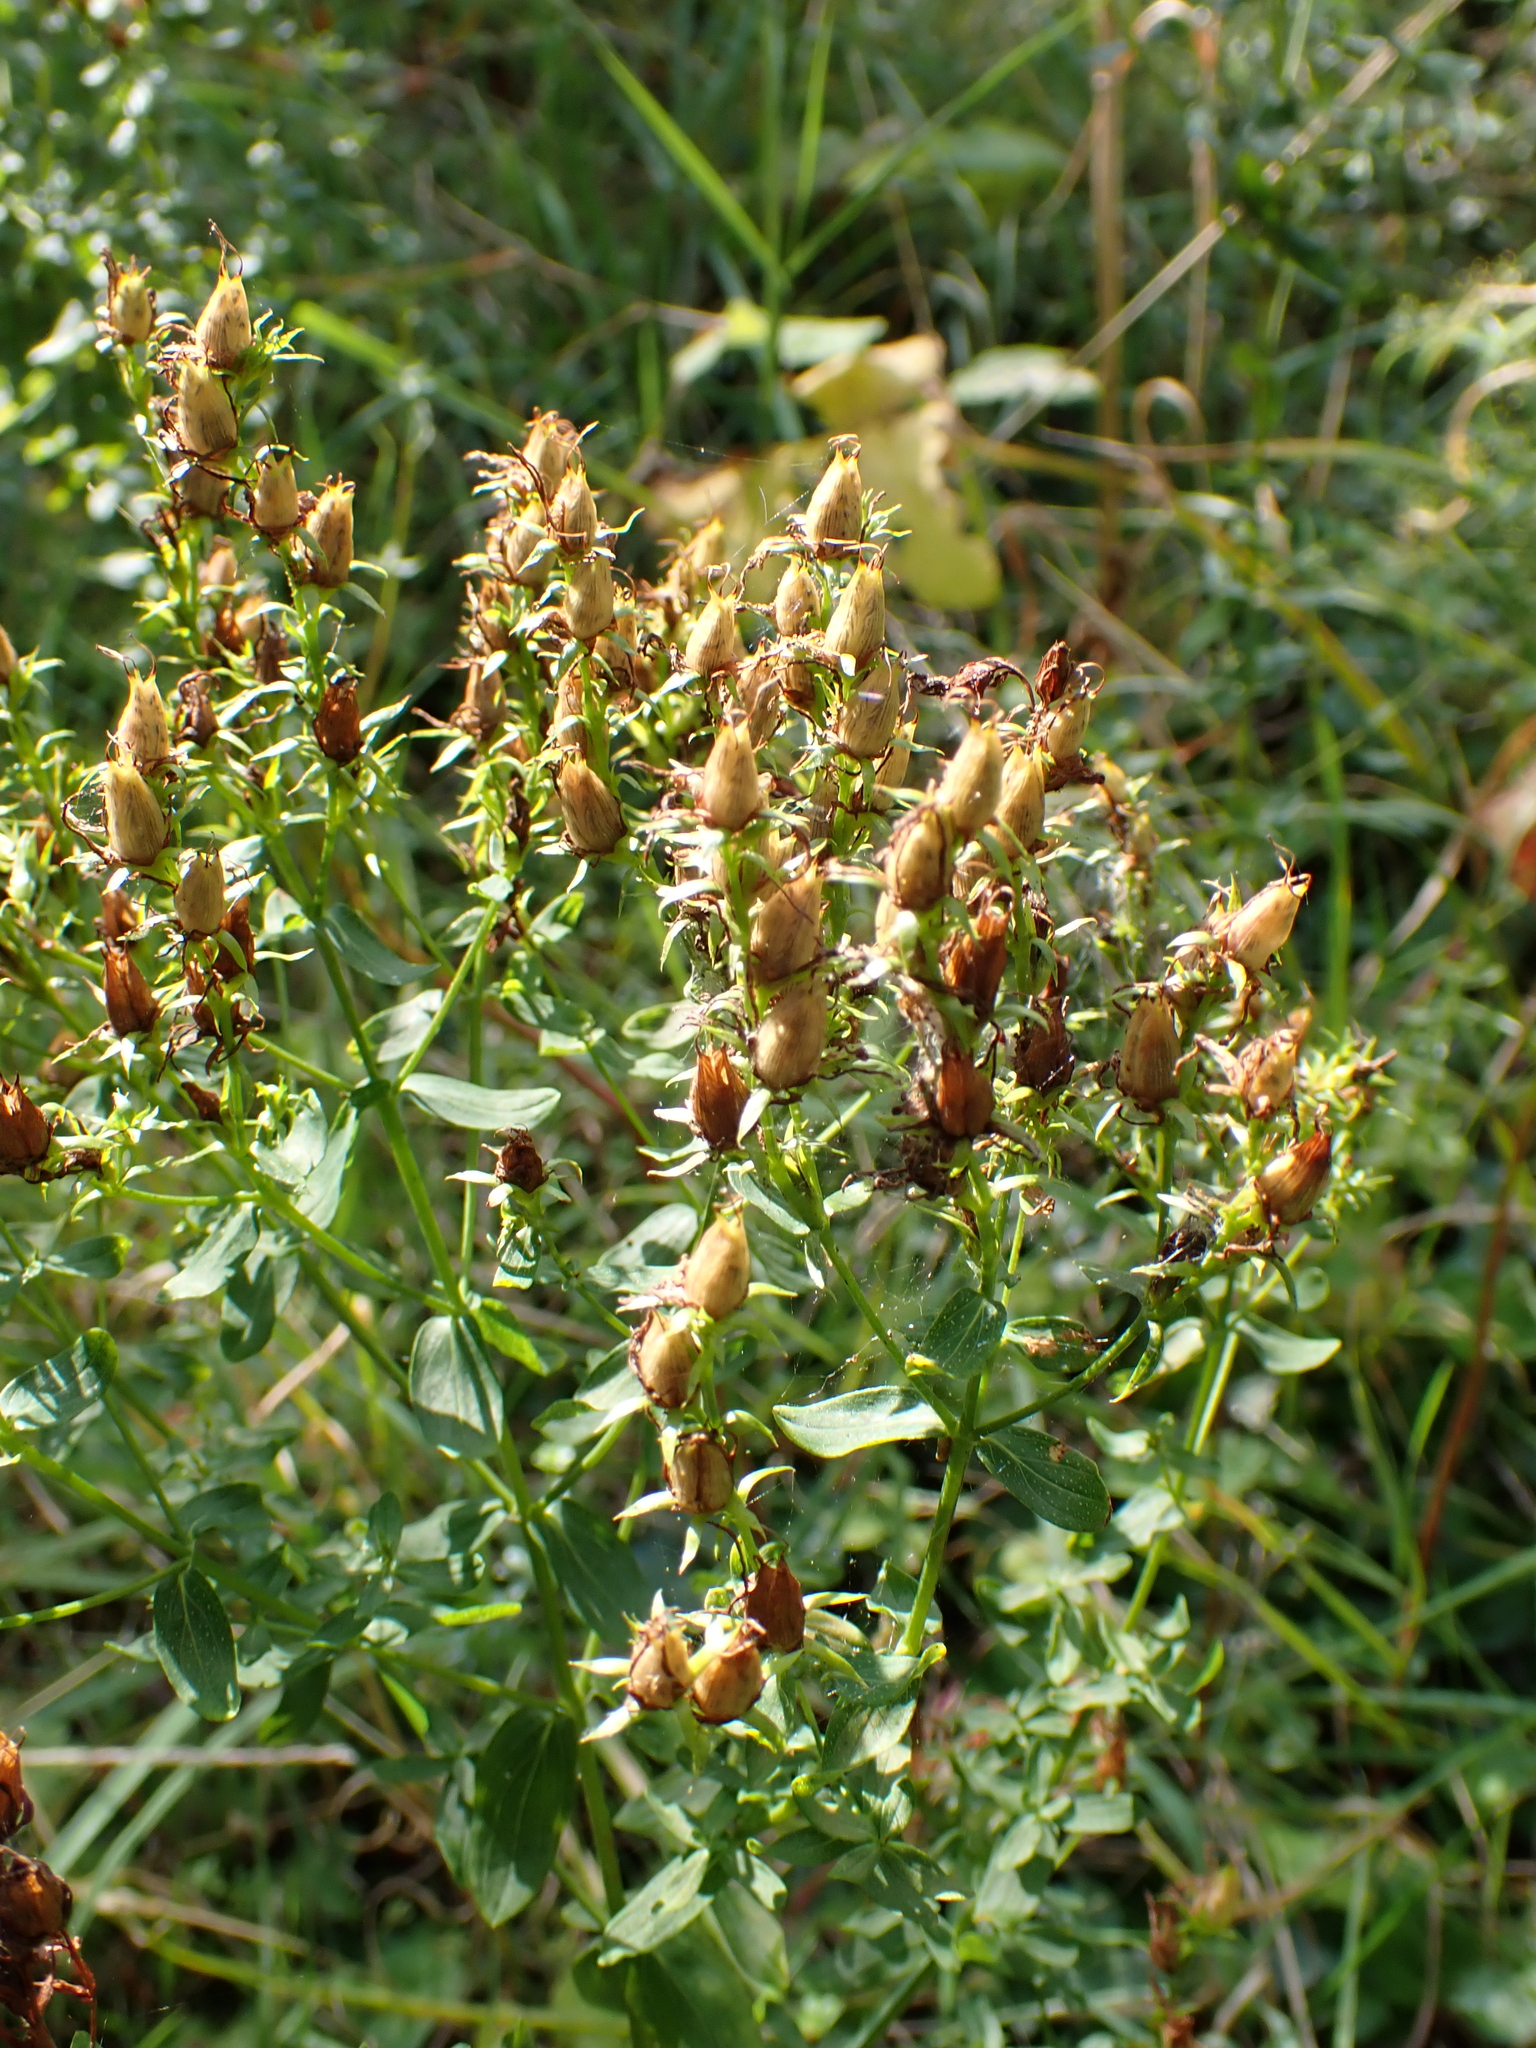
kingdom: Plantae
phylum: Tracheophyta
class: Magnoliopsida
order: Malpighiales
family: Hypericaceae
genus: Hypericum
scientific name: Hypericum perforatum
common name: Common st. johnswort
